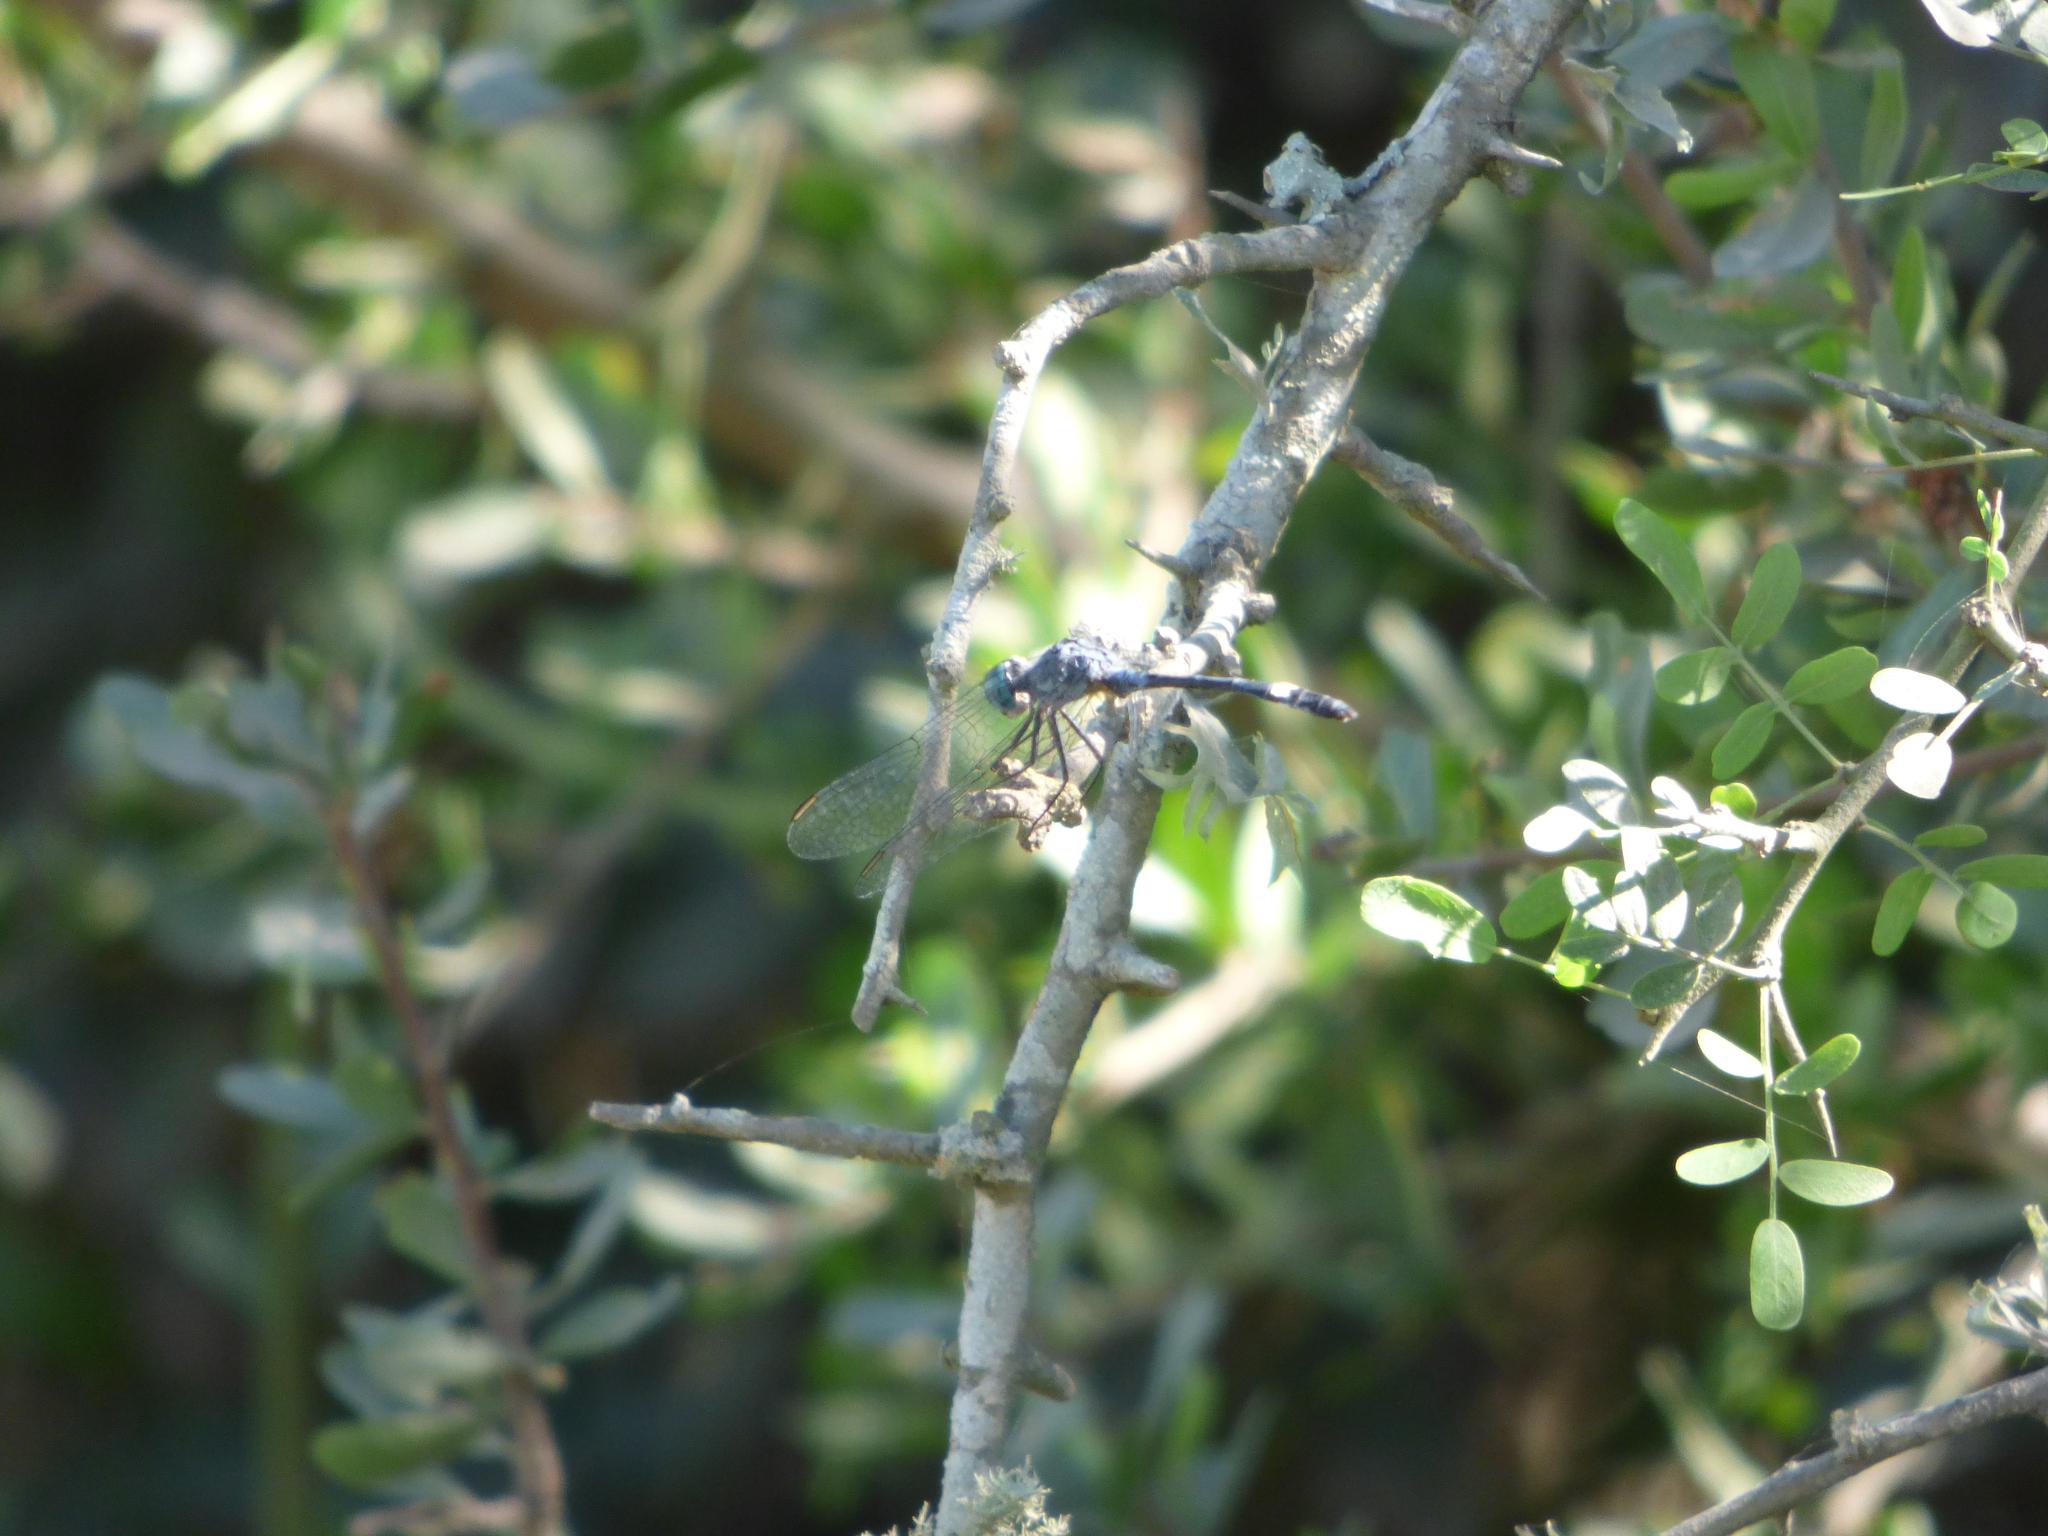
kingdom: Animalia
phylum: Arthropoda
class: Insecta
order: Odonata
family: Libellulidae
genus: Micrathyria
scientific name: Micrathyria longifasciata
